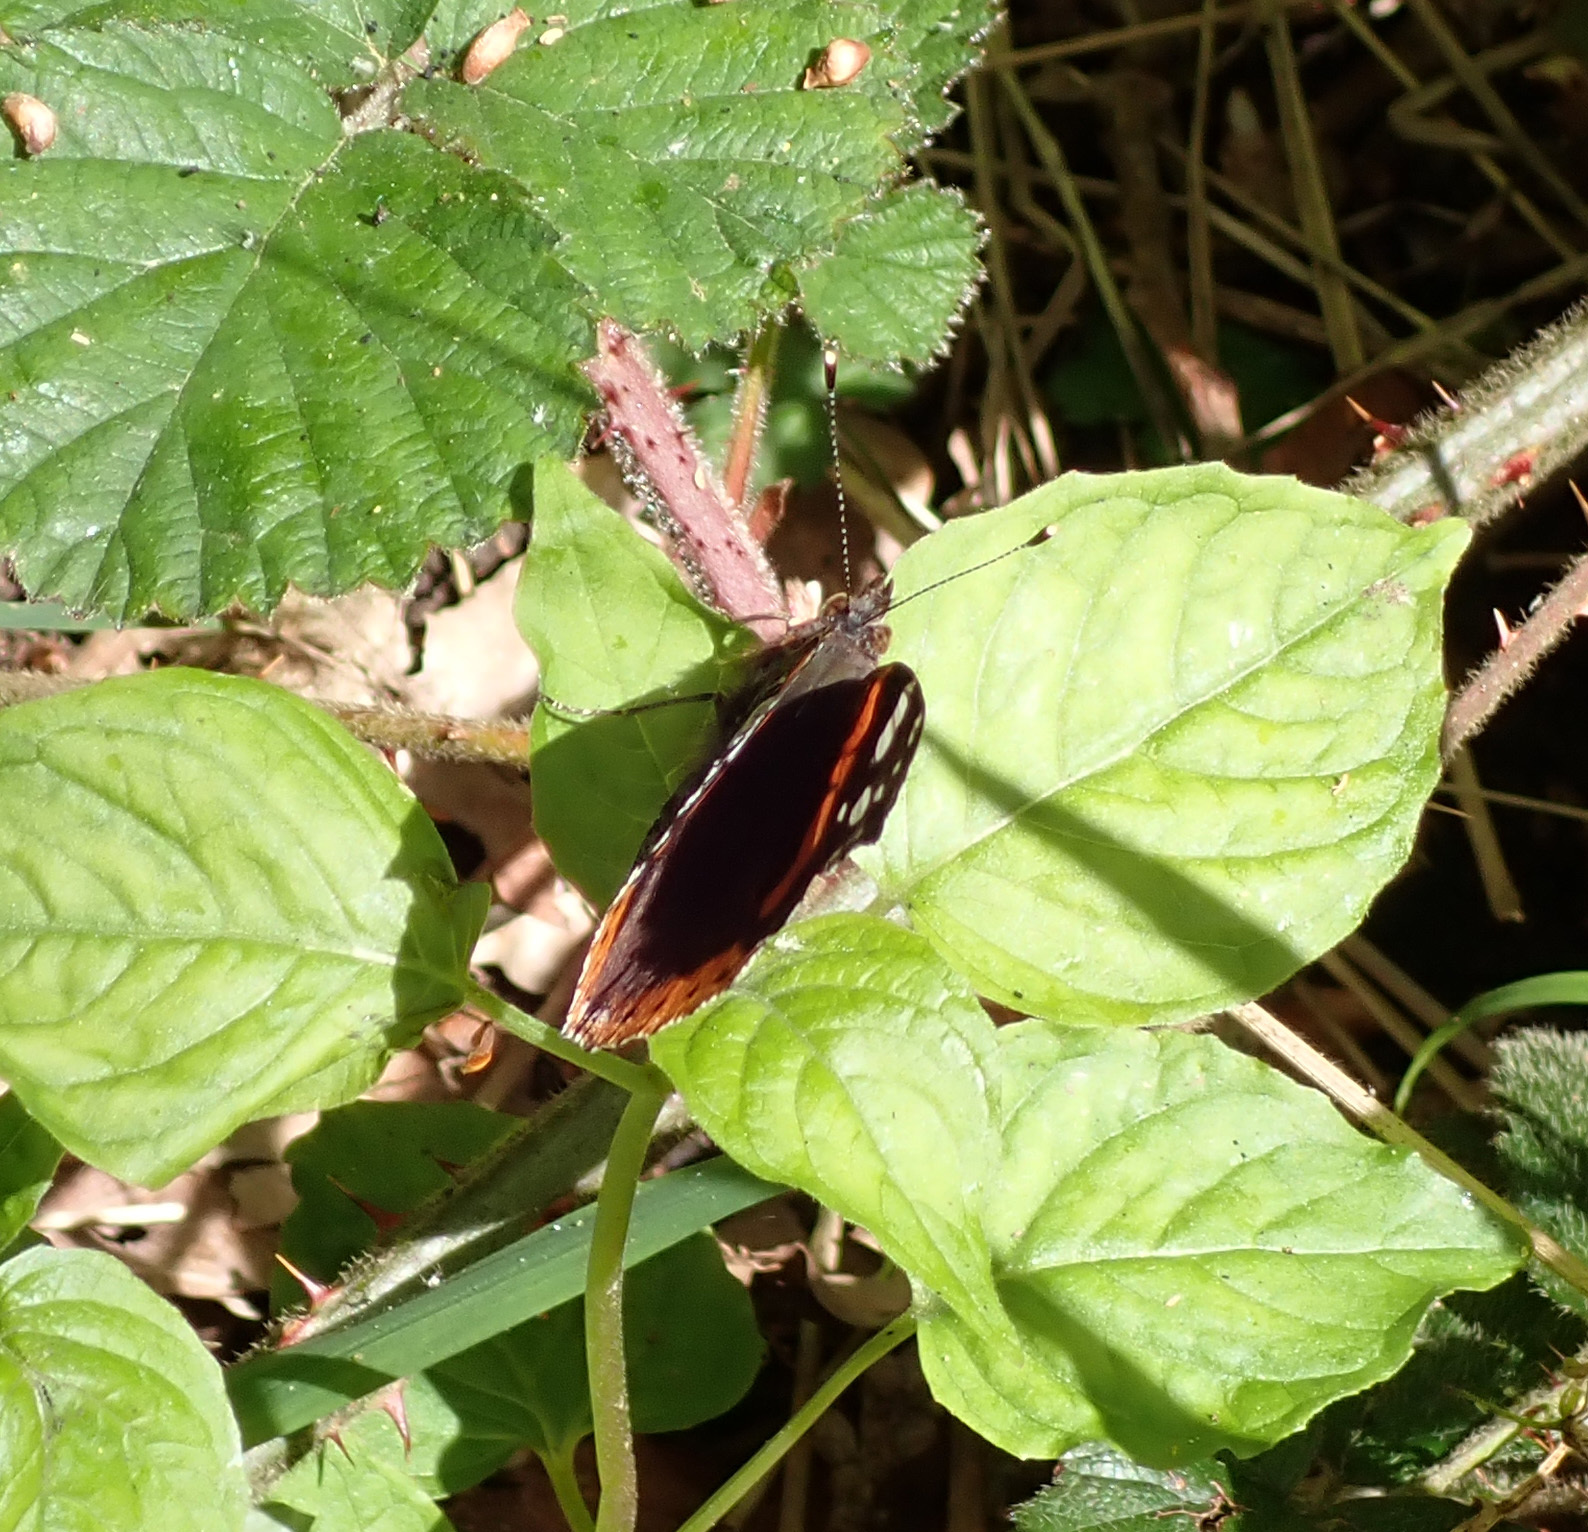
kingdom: Animalia
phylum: Arthropoda
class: Insecta
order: Lepidoptera
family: Nymphalidae
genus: Vanessa
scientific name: Vanessa atalanta
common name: Red admiral
